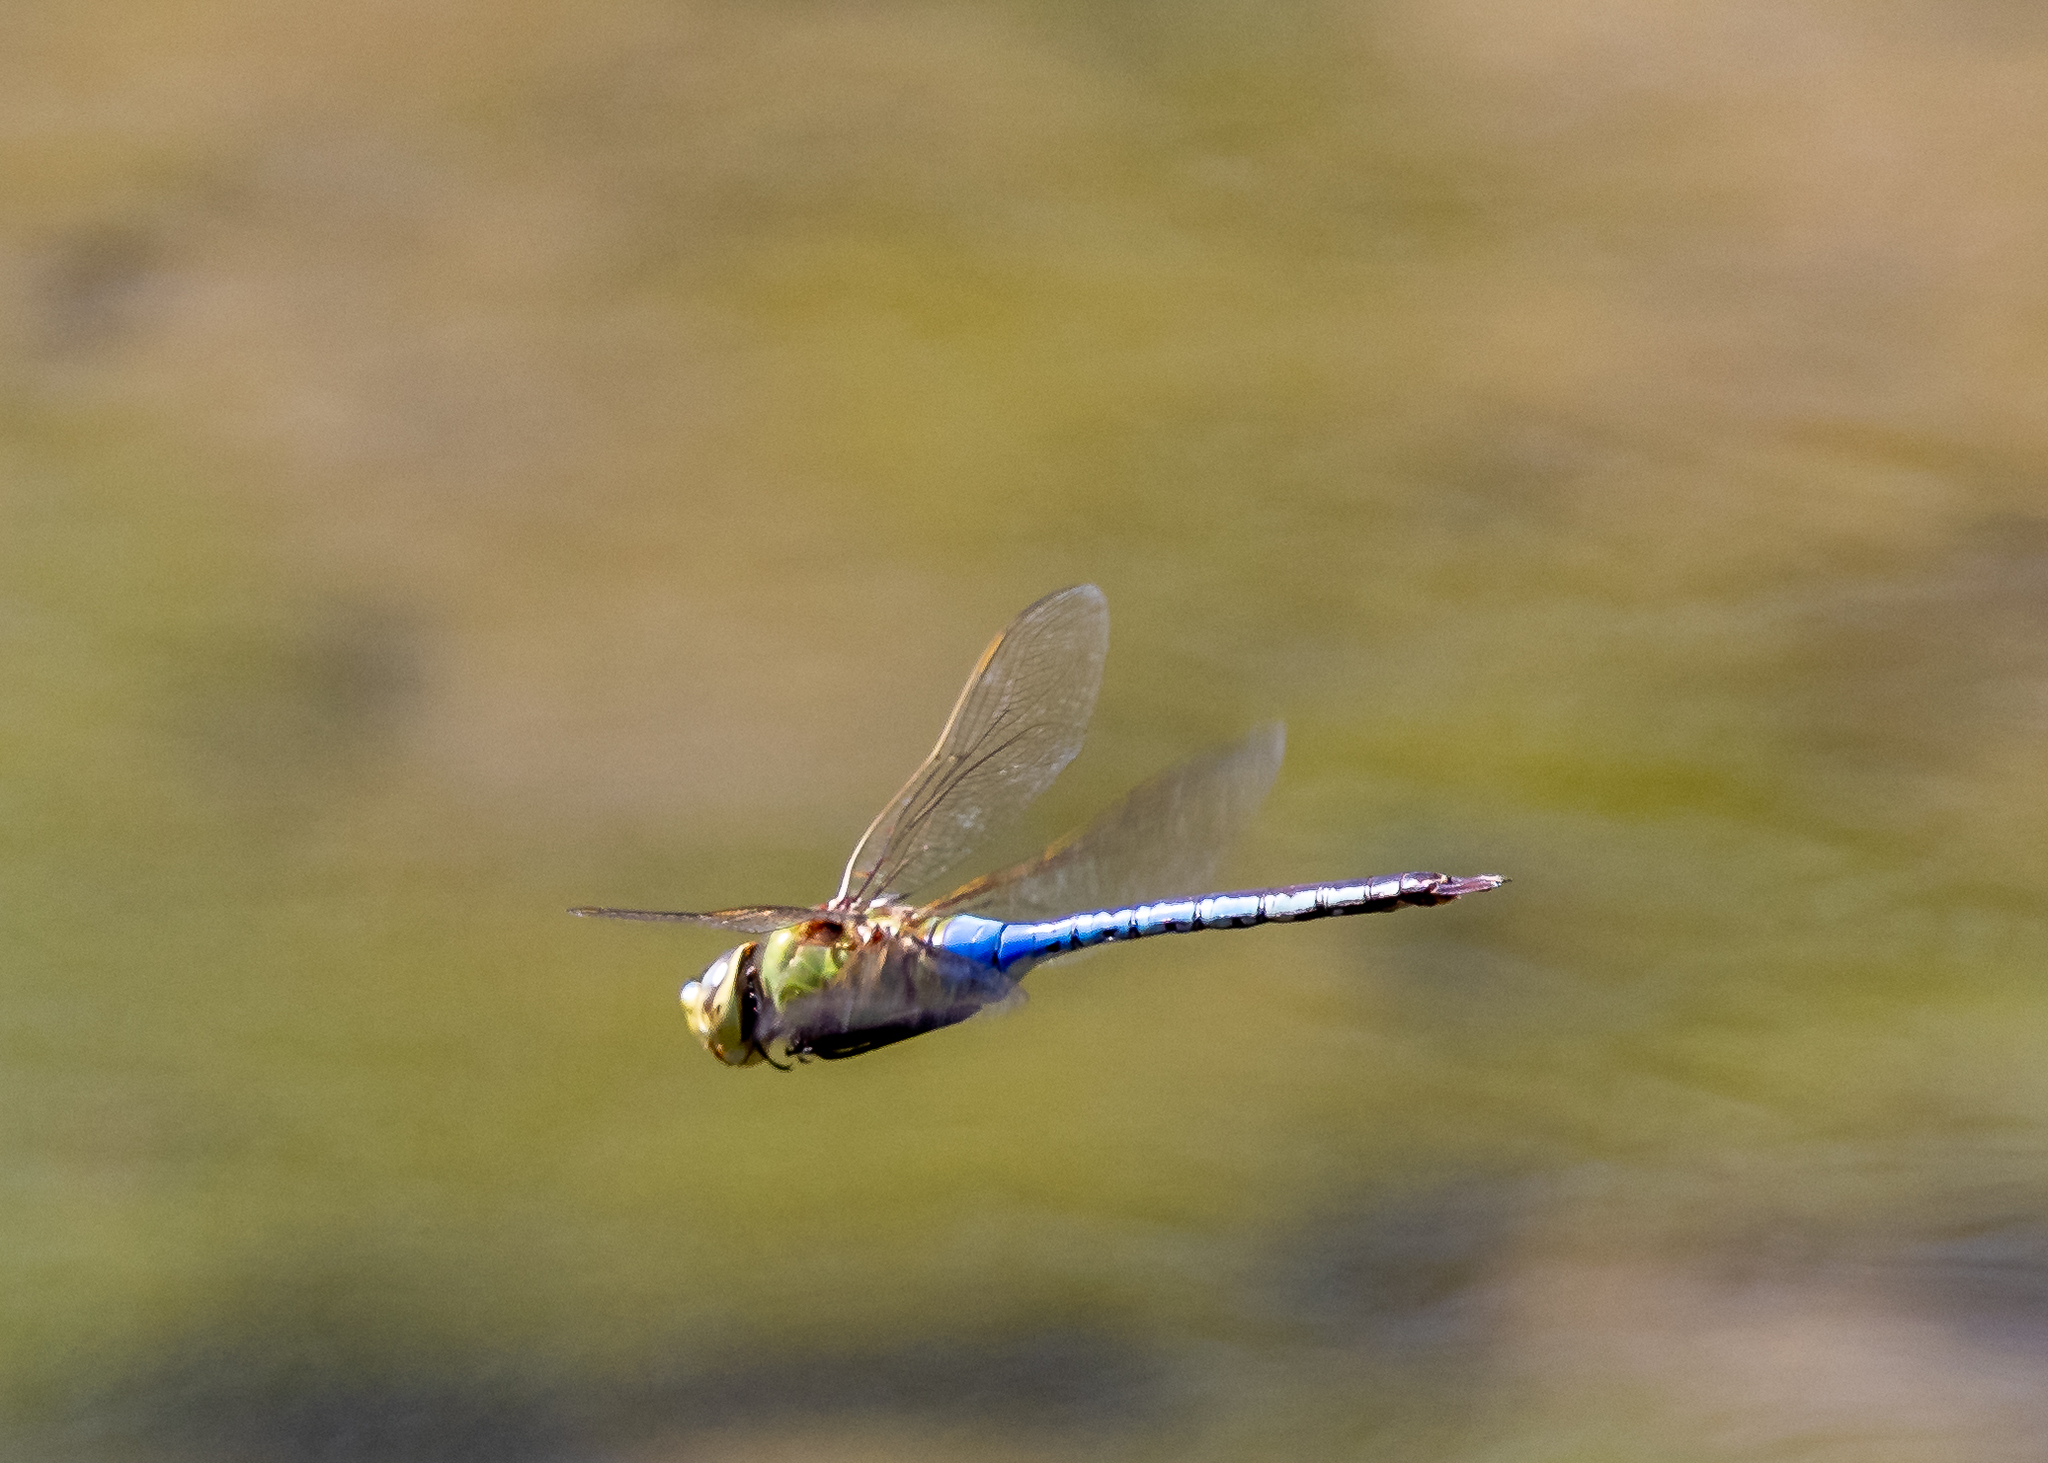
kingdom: Animalia
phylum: Arthropoda
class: Insecta
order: Odonata
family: Aeshnidae
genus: Anax
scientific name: Anax junius
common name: Common green darner
